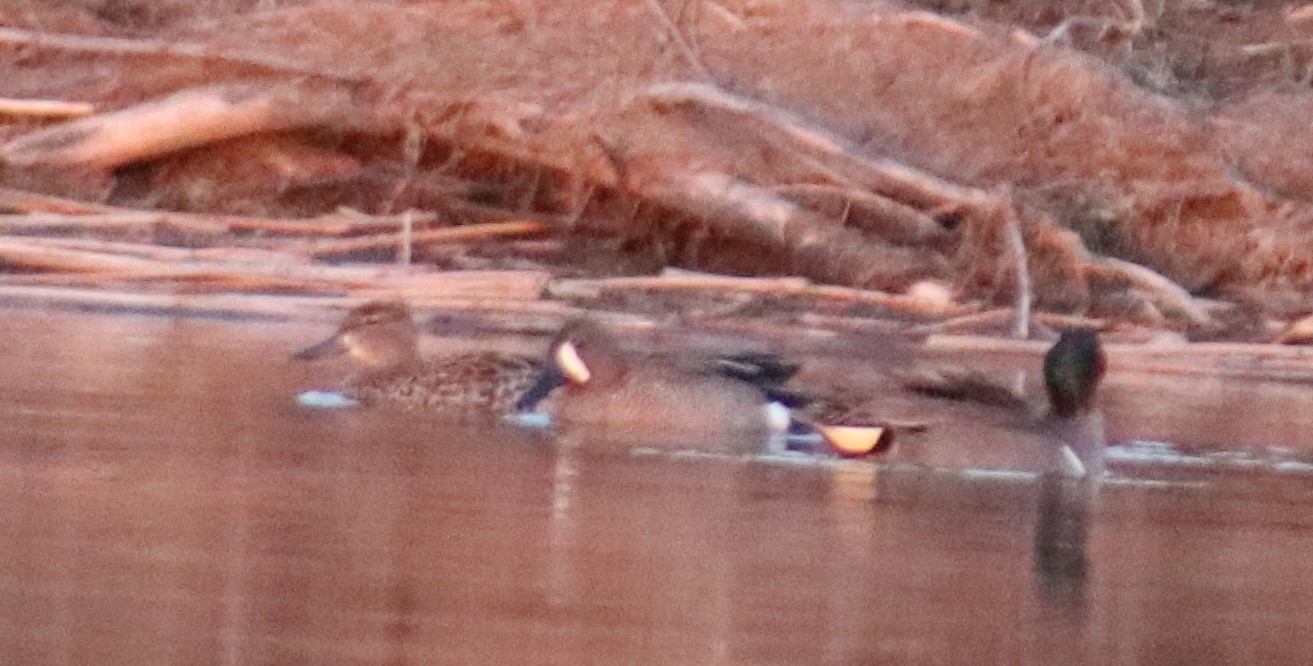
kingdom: Animalia
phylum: Chordata
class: Aves
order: Anseriformes
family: Anatidae
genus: Spatula
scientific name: Spatula discors
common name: Blue-winged teal
